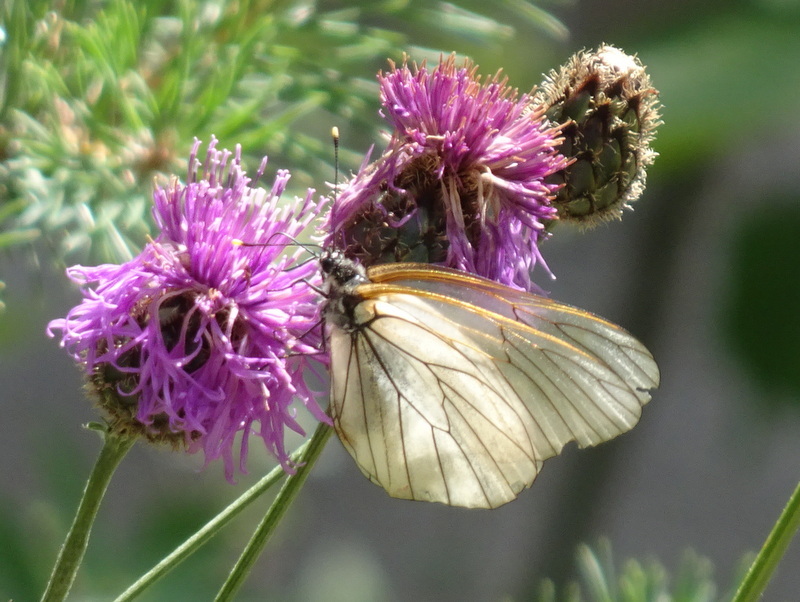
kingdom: Animalia
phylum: Arthropoda
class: Insecta
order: Lepidoptera
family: Pieridae
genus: Aporia
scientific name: Aporia crataegi
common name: Black-veined white
